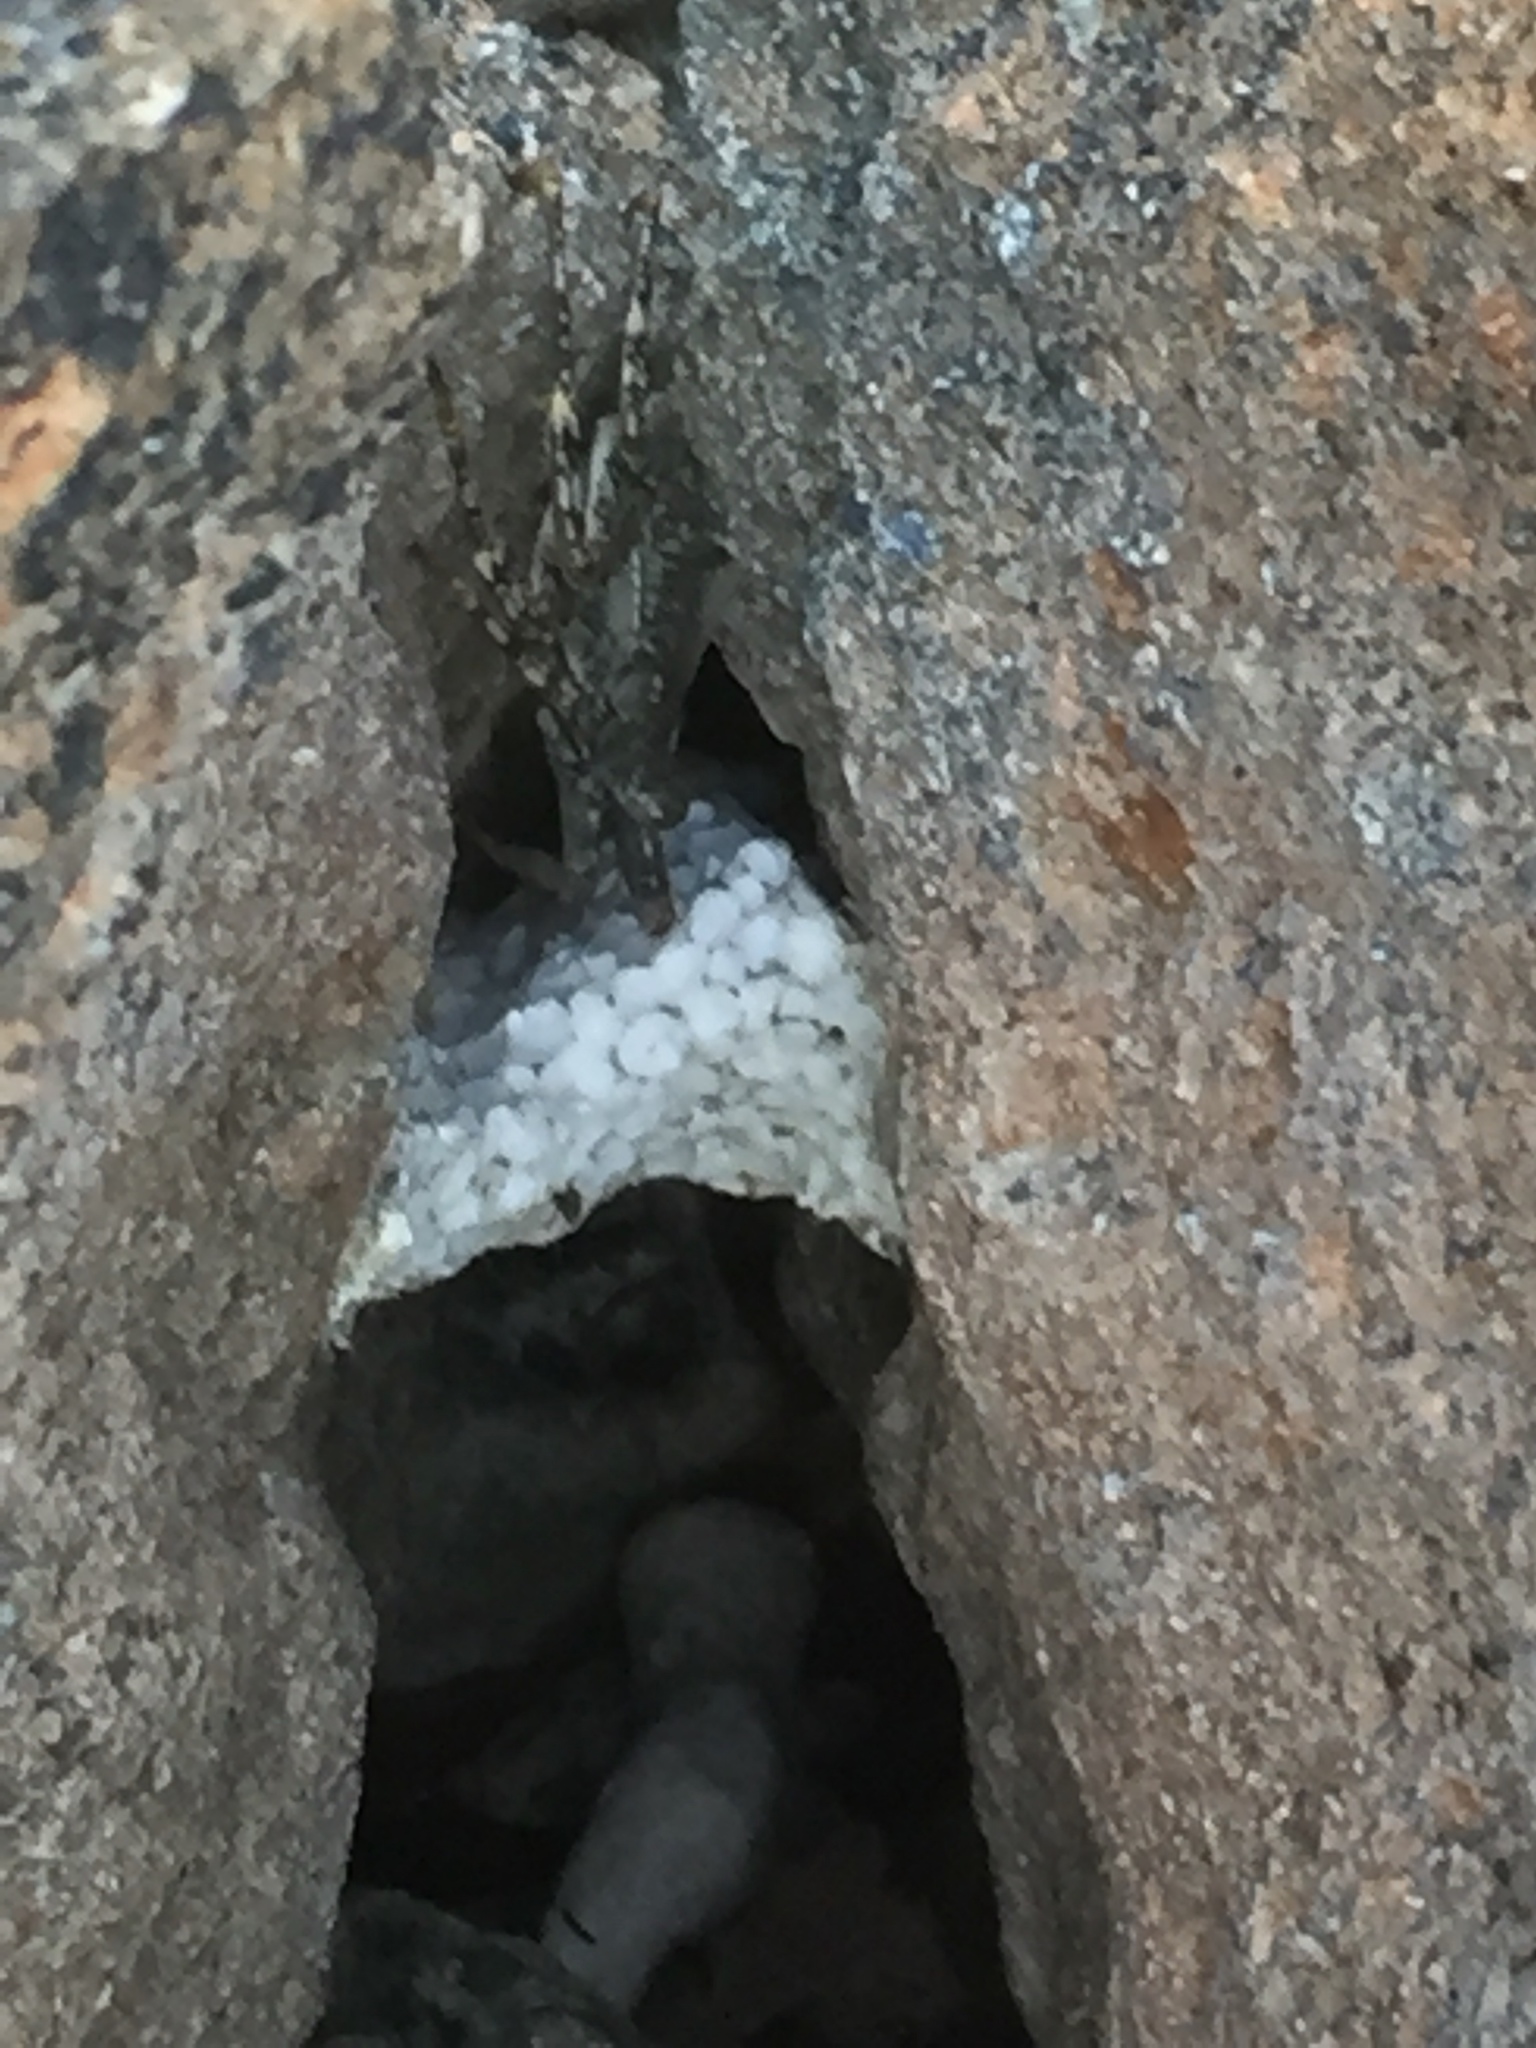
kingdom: Animalia
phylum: Arthropoda
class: Malacostraca
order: Decapoda
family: Grapsidae
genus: Grapsus
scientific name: Grapsus grapsus
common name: Sally lightfoot
